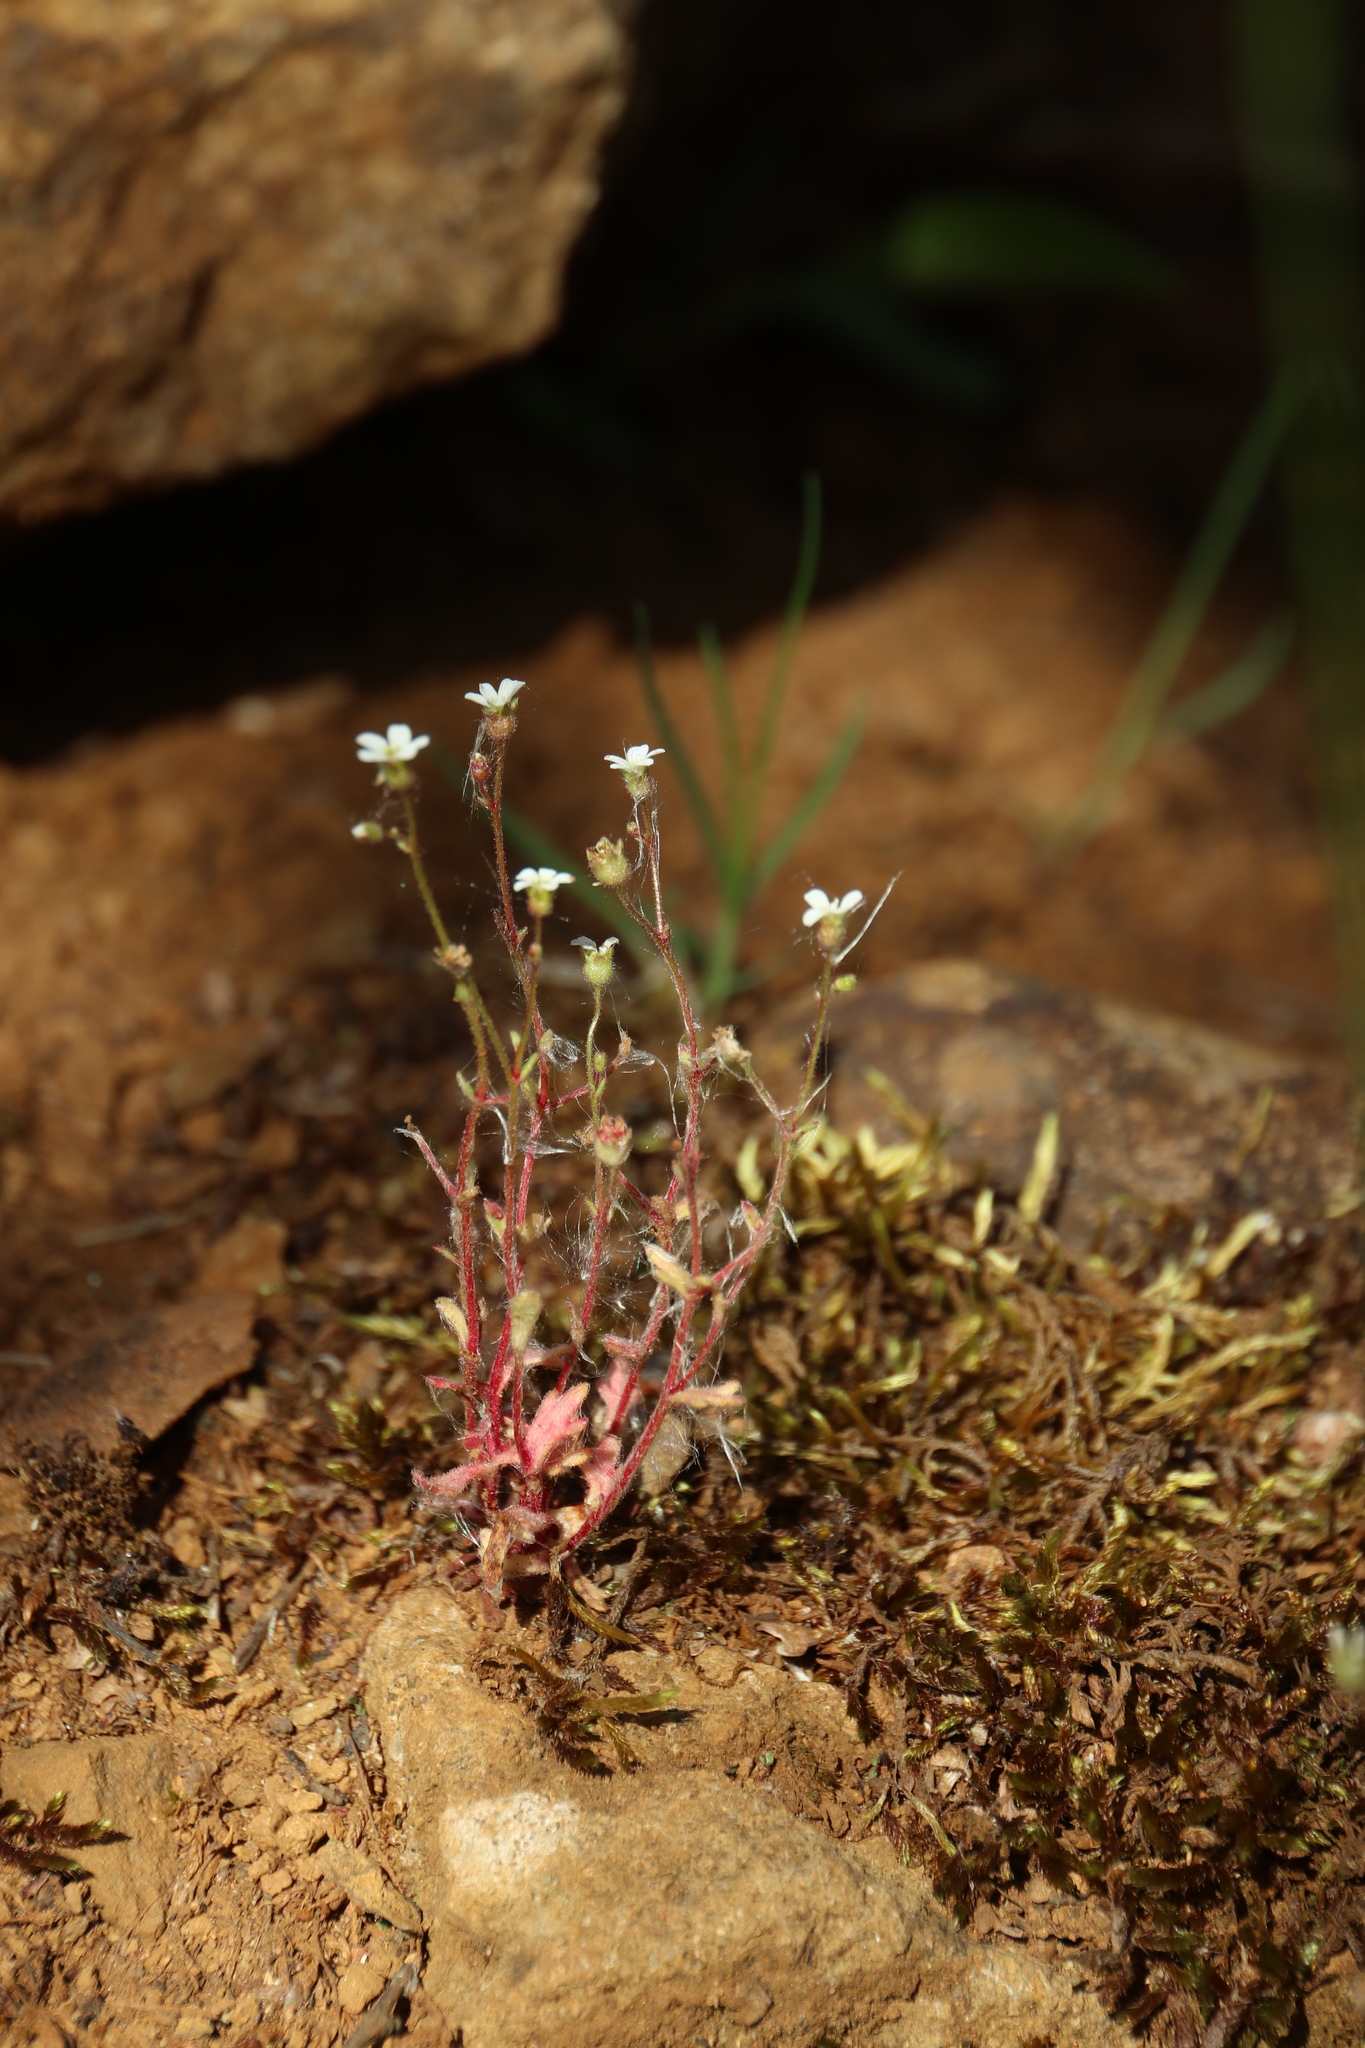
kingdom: Plantae
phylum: Tracheophyta
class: Magnoliopsida
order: Saxifragales
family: Saxifragaceae
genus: Saxifraga
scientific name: Saxifraga tridactylites
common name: Rue-leaved saxifrage
